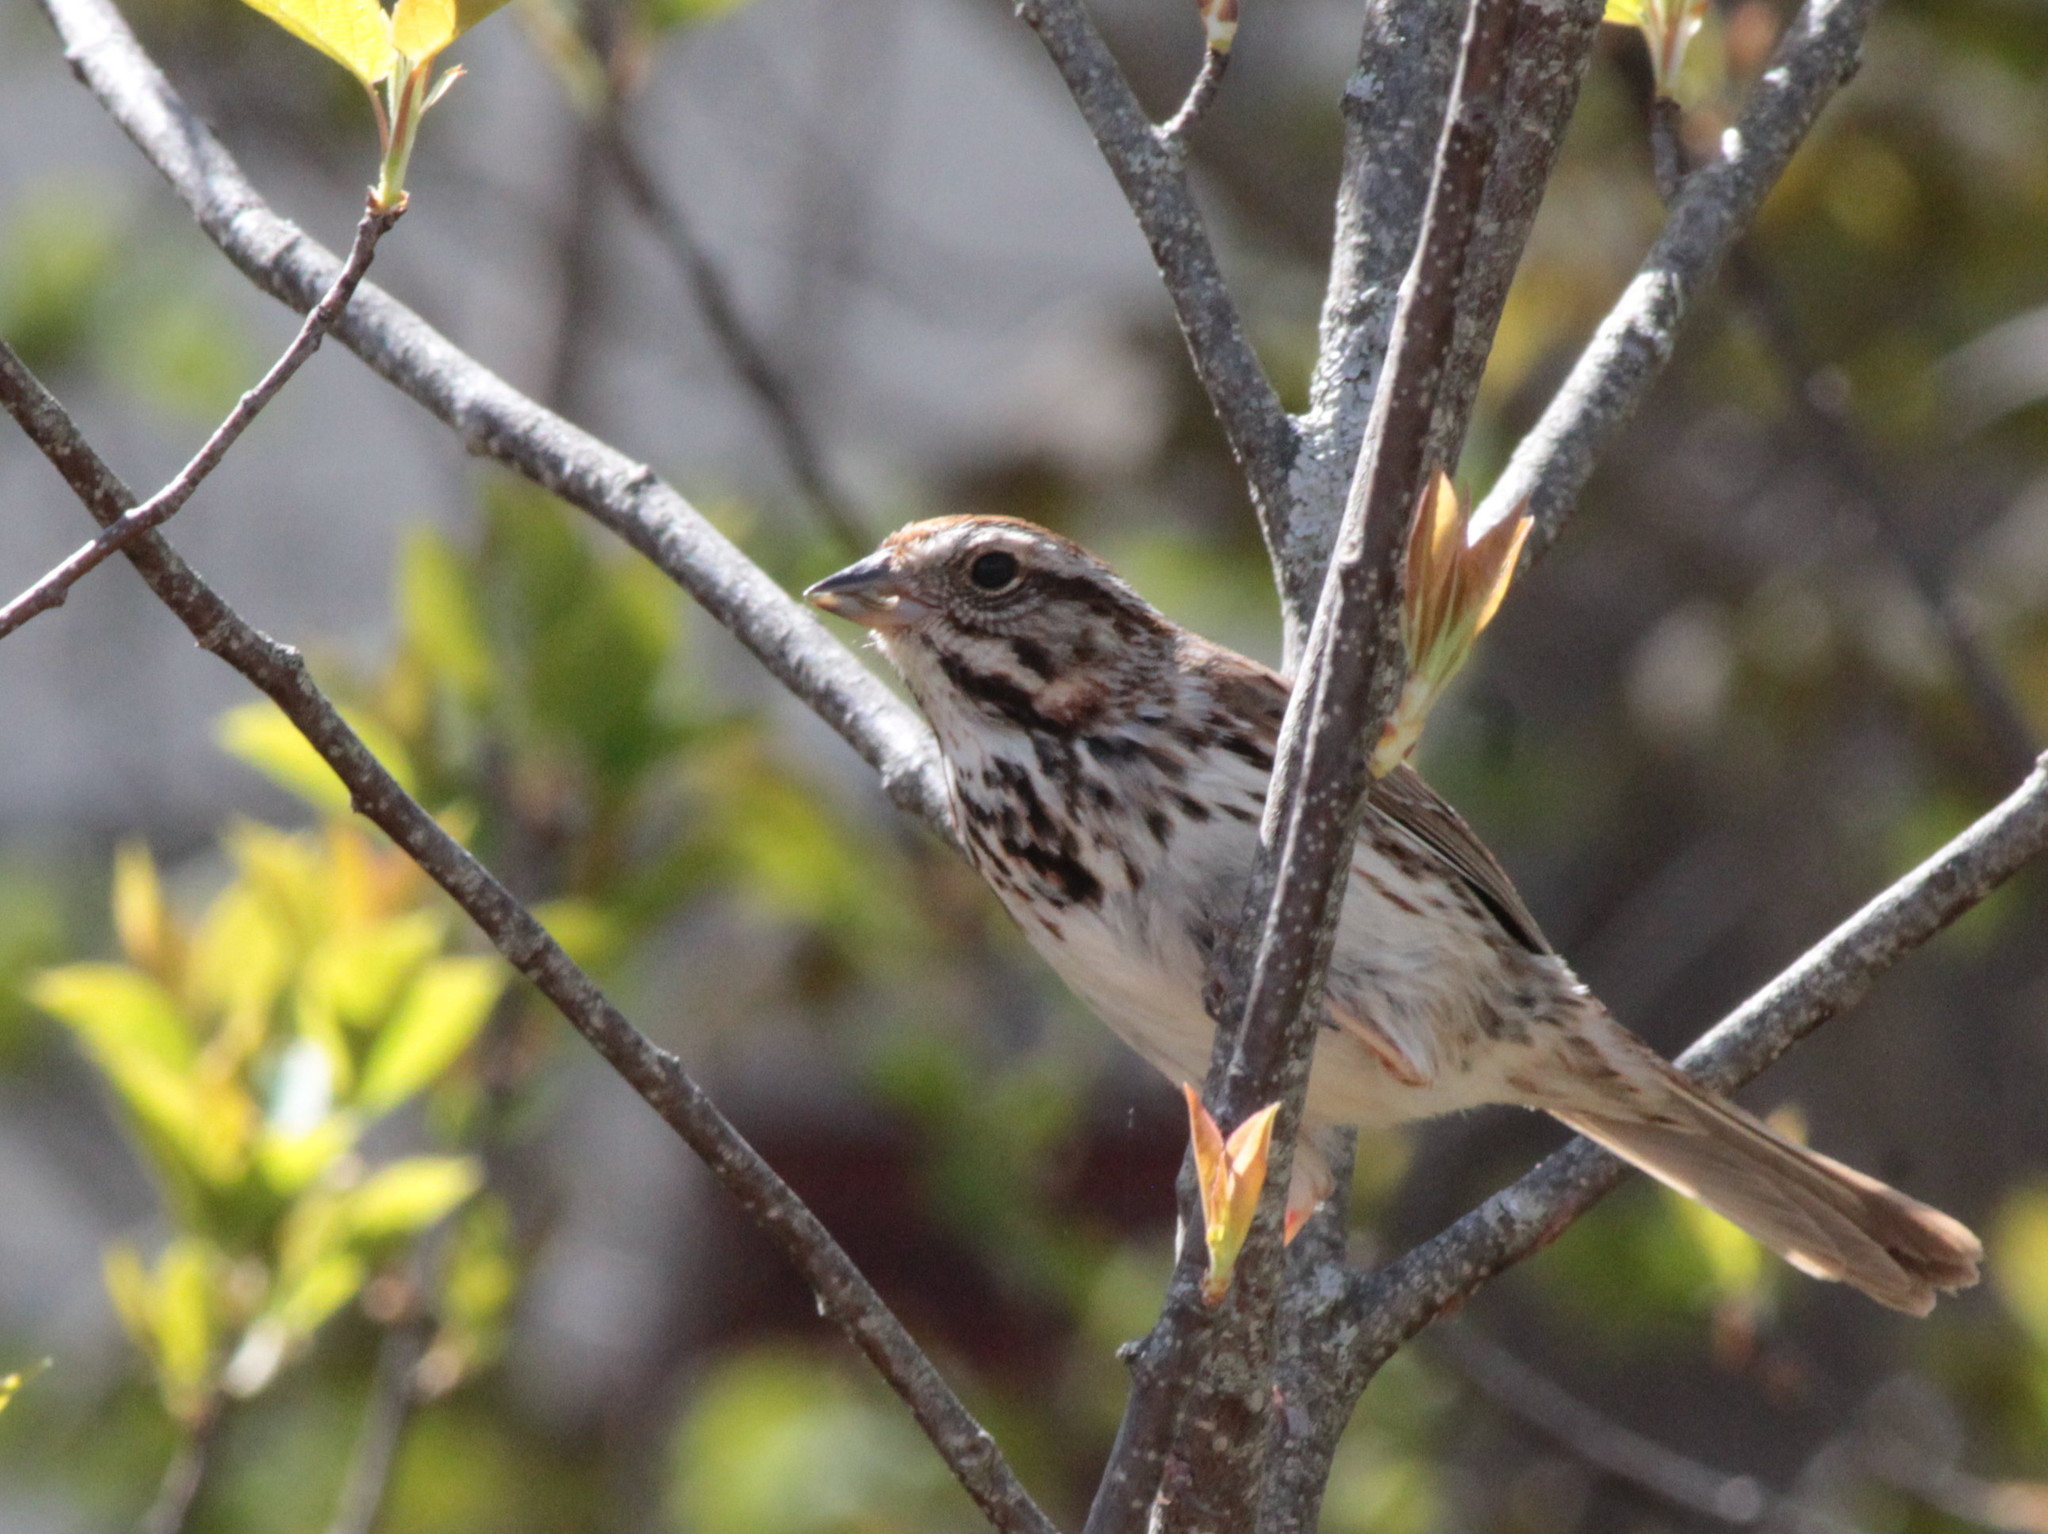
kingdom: Animalia
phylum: Chordata
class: Aves
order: Passeriformes
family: Passerellidae
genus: Melospiza
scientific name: Melospiza melodia
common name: Song sparrow
